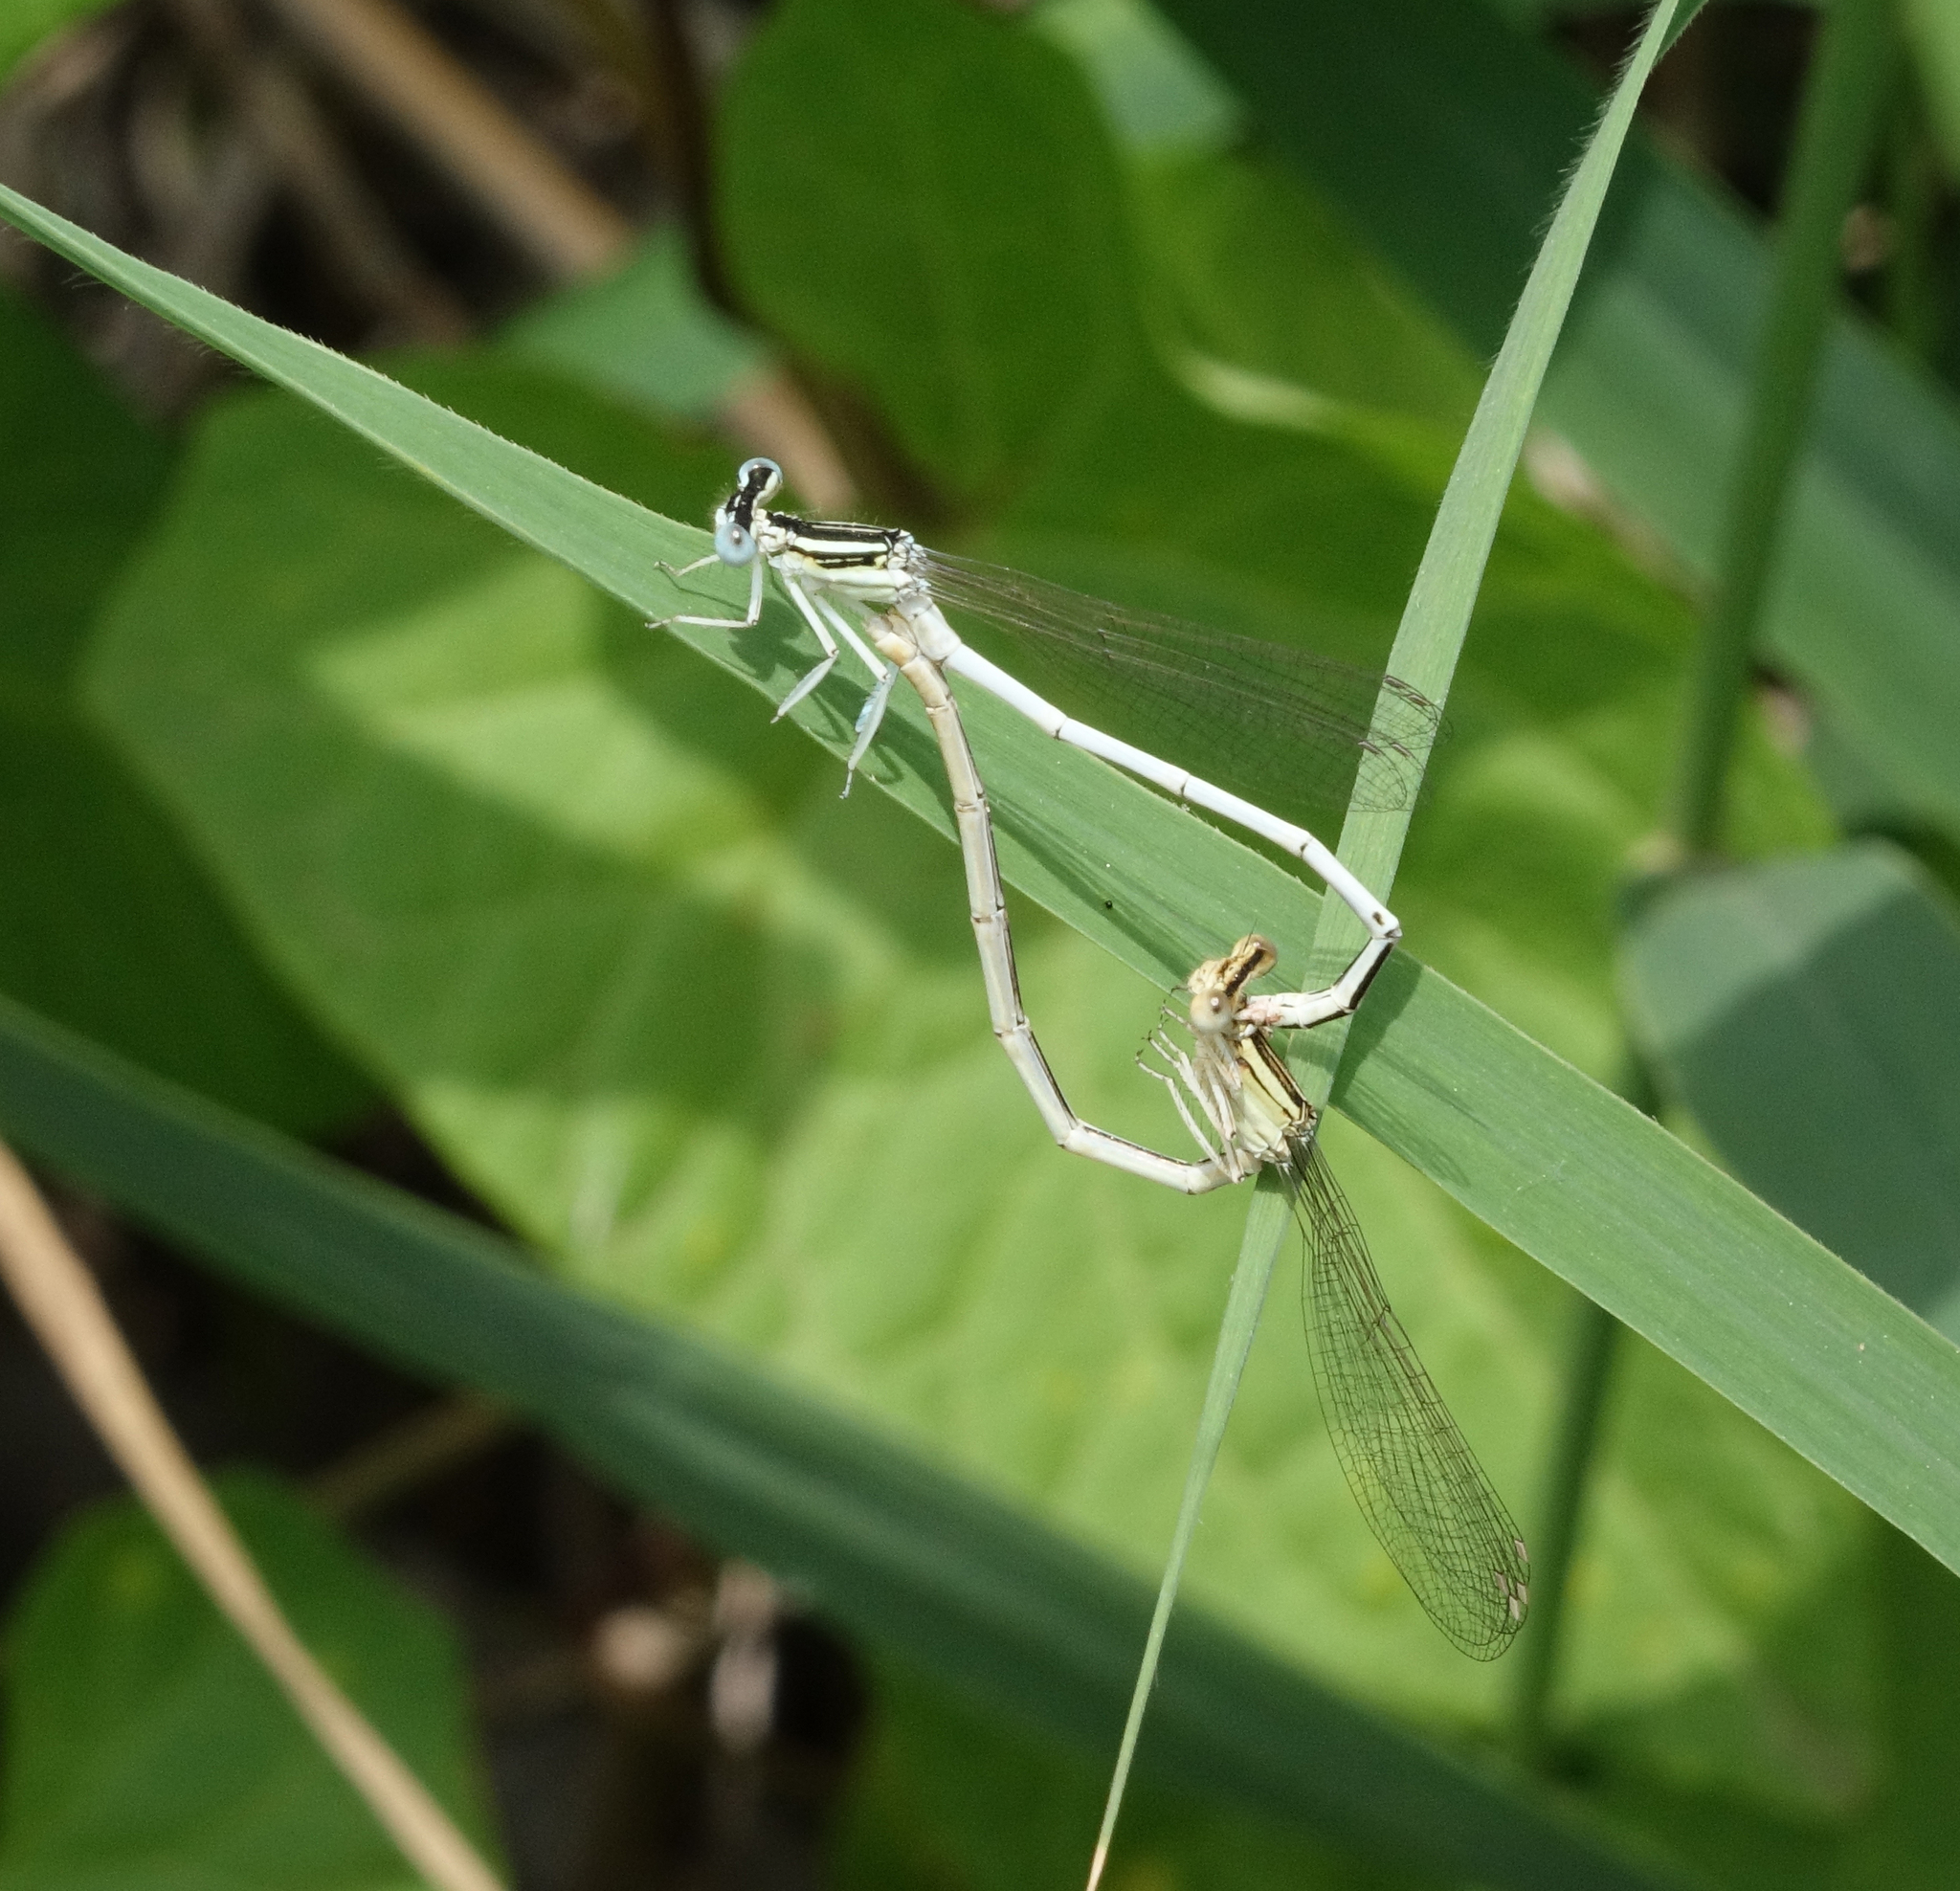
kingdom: Animalia
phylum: Arthropoda
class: Insecta
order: Odonata
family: Platycnemididae
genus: Platycnemis
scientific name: Platycnemis dealbata
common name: Ivory featherleg
